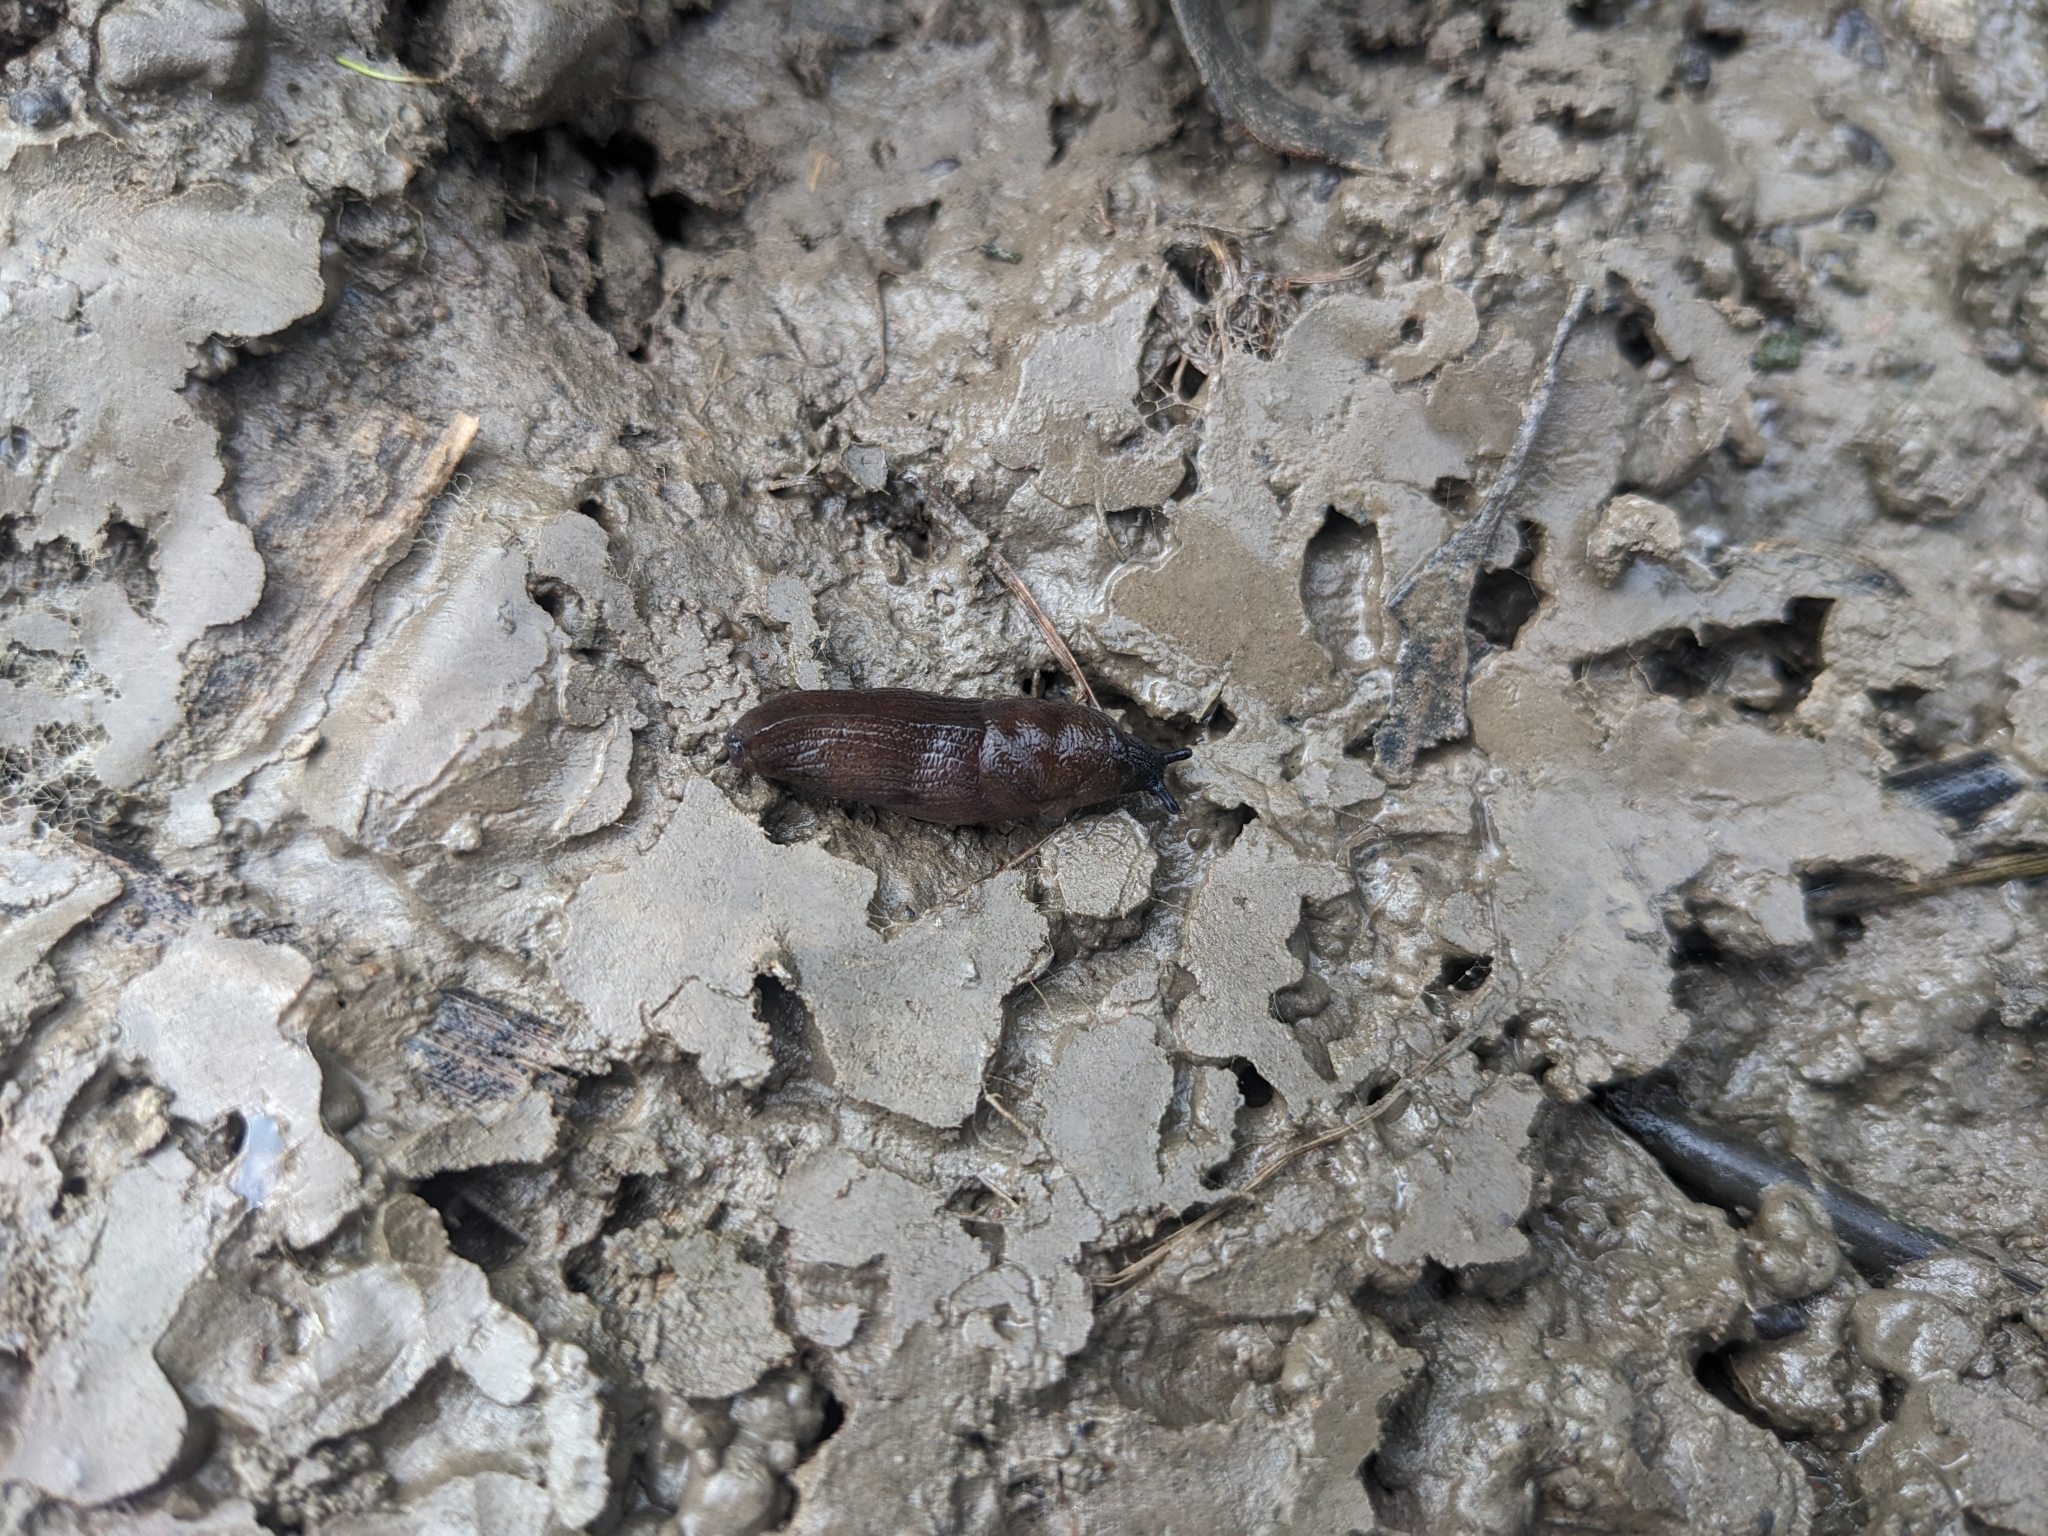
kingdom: Animalia
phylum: Mollusca
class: Gastropoda
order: Stylommatophora
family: Milacidae
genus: Milax
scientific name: Milax gagates
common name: Greenhouse slug
